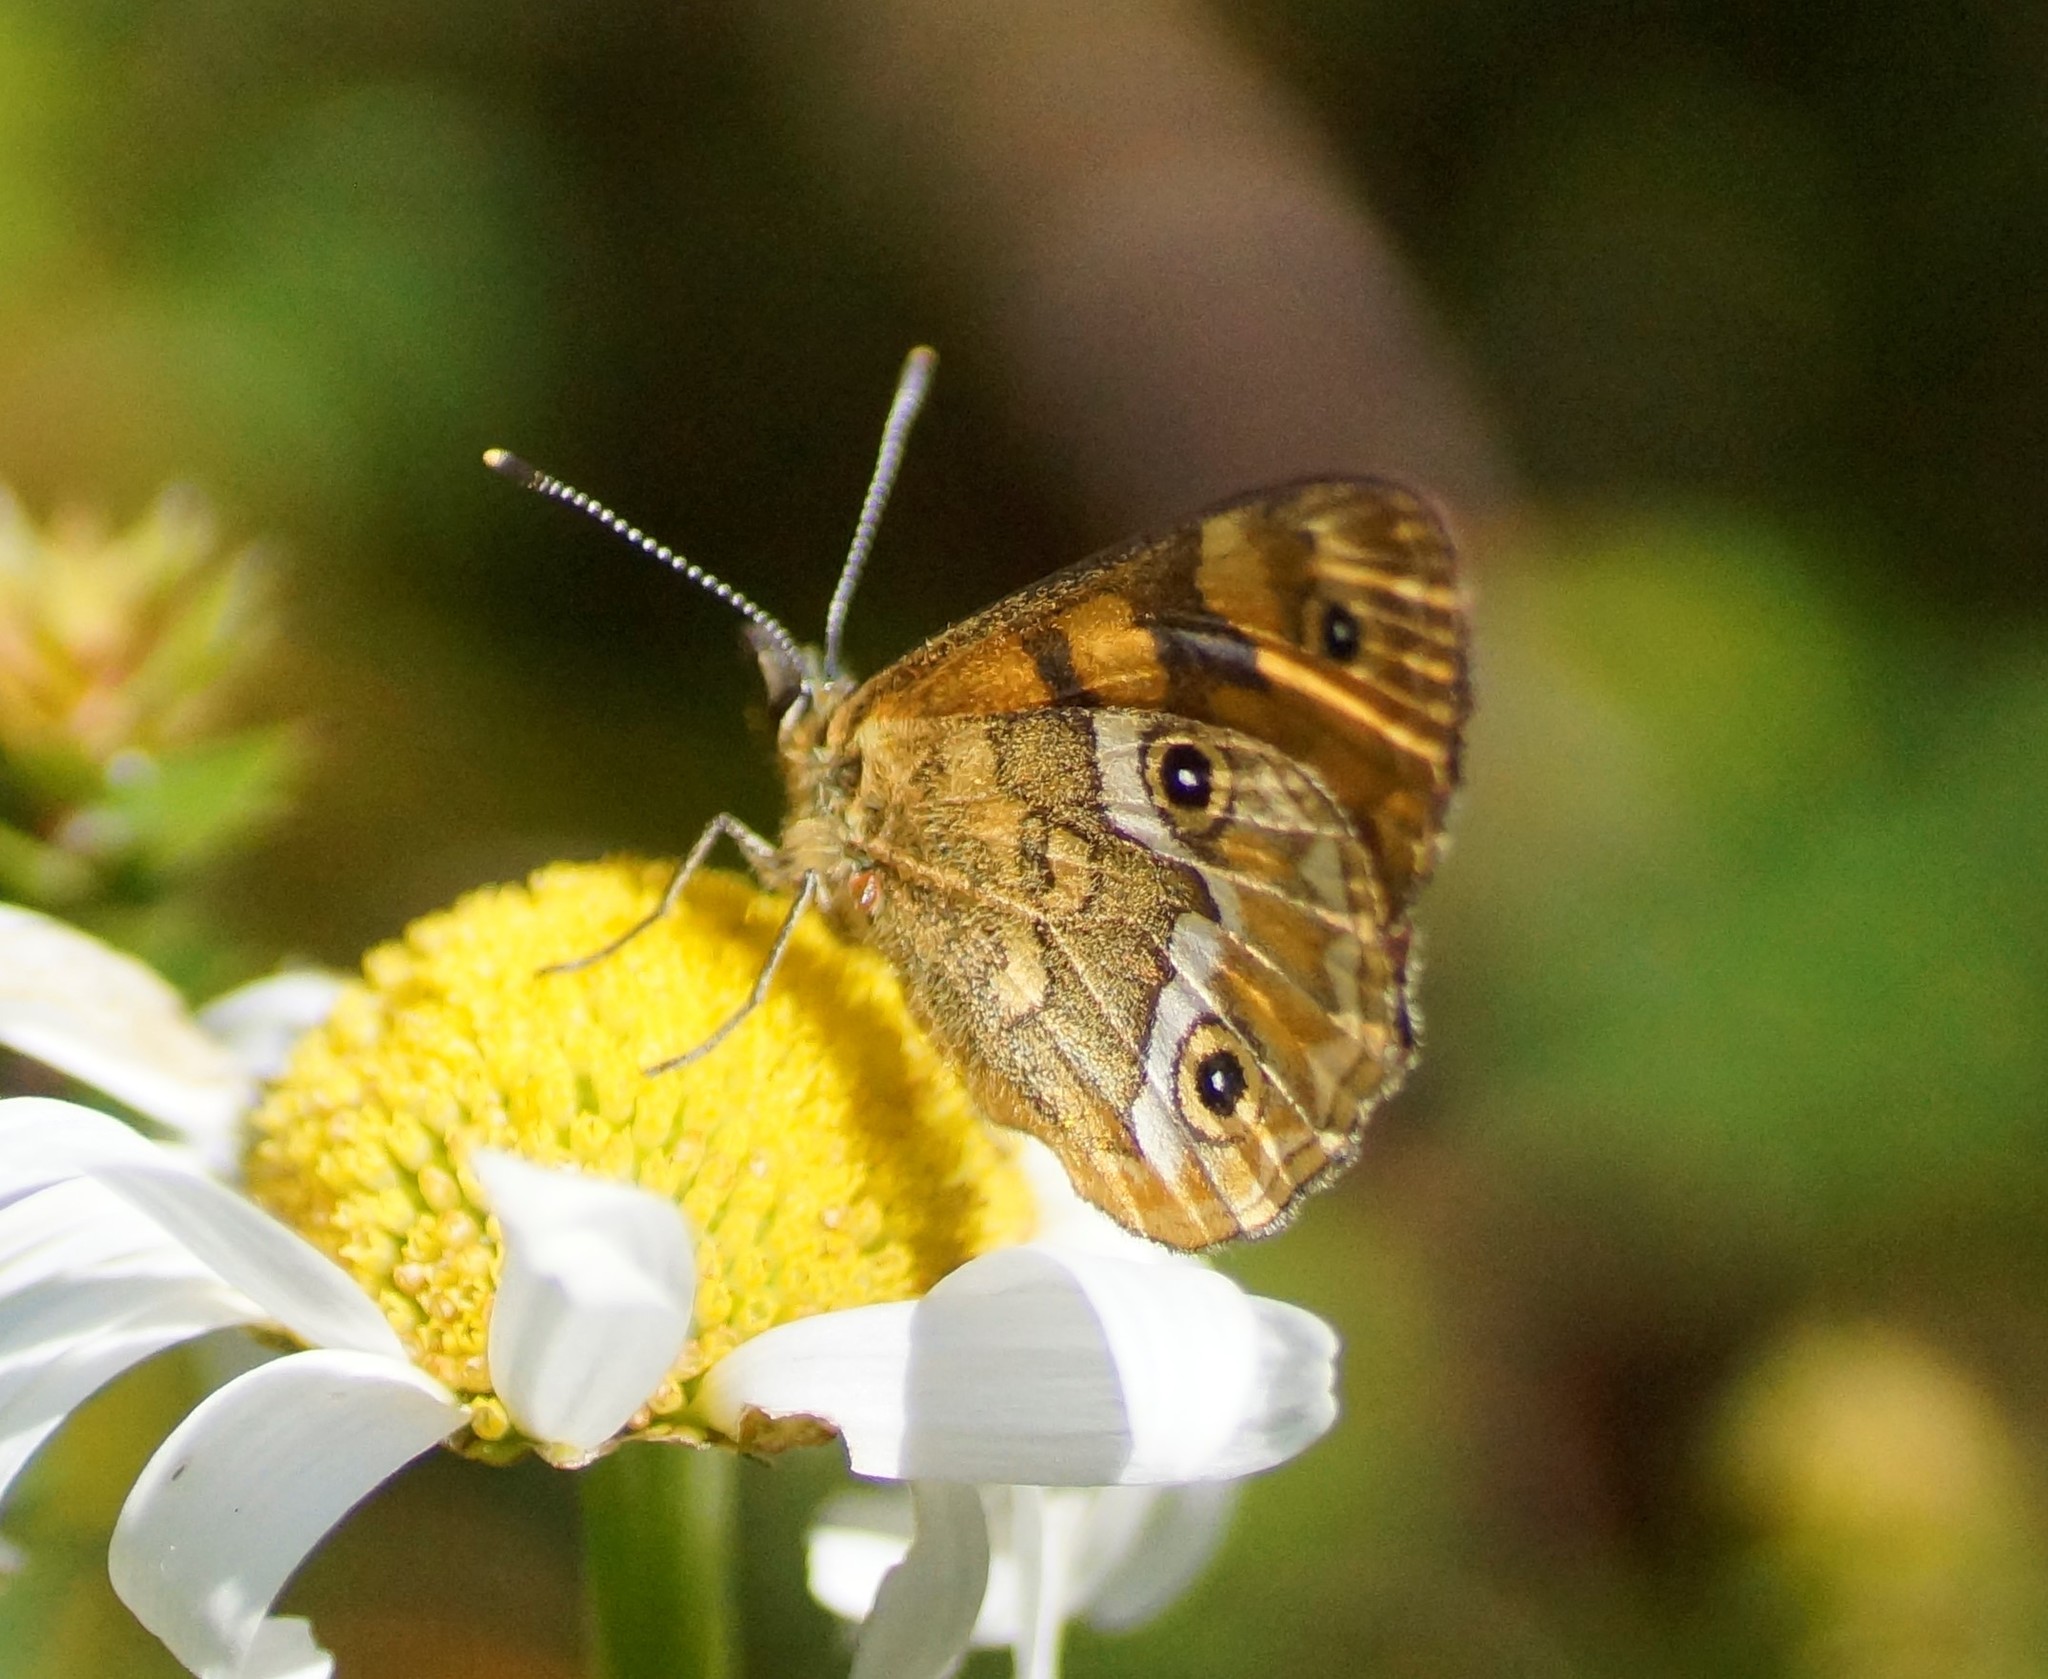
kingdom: Animalia
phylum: Arthropoda
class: Insecta
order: Lepidoptera
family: Nymphalidae
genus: Oreixenica
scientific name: Oreixenica correae
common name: Correa brown
